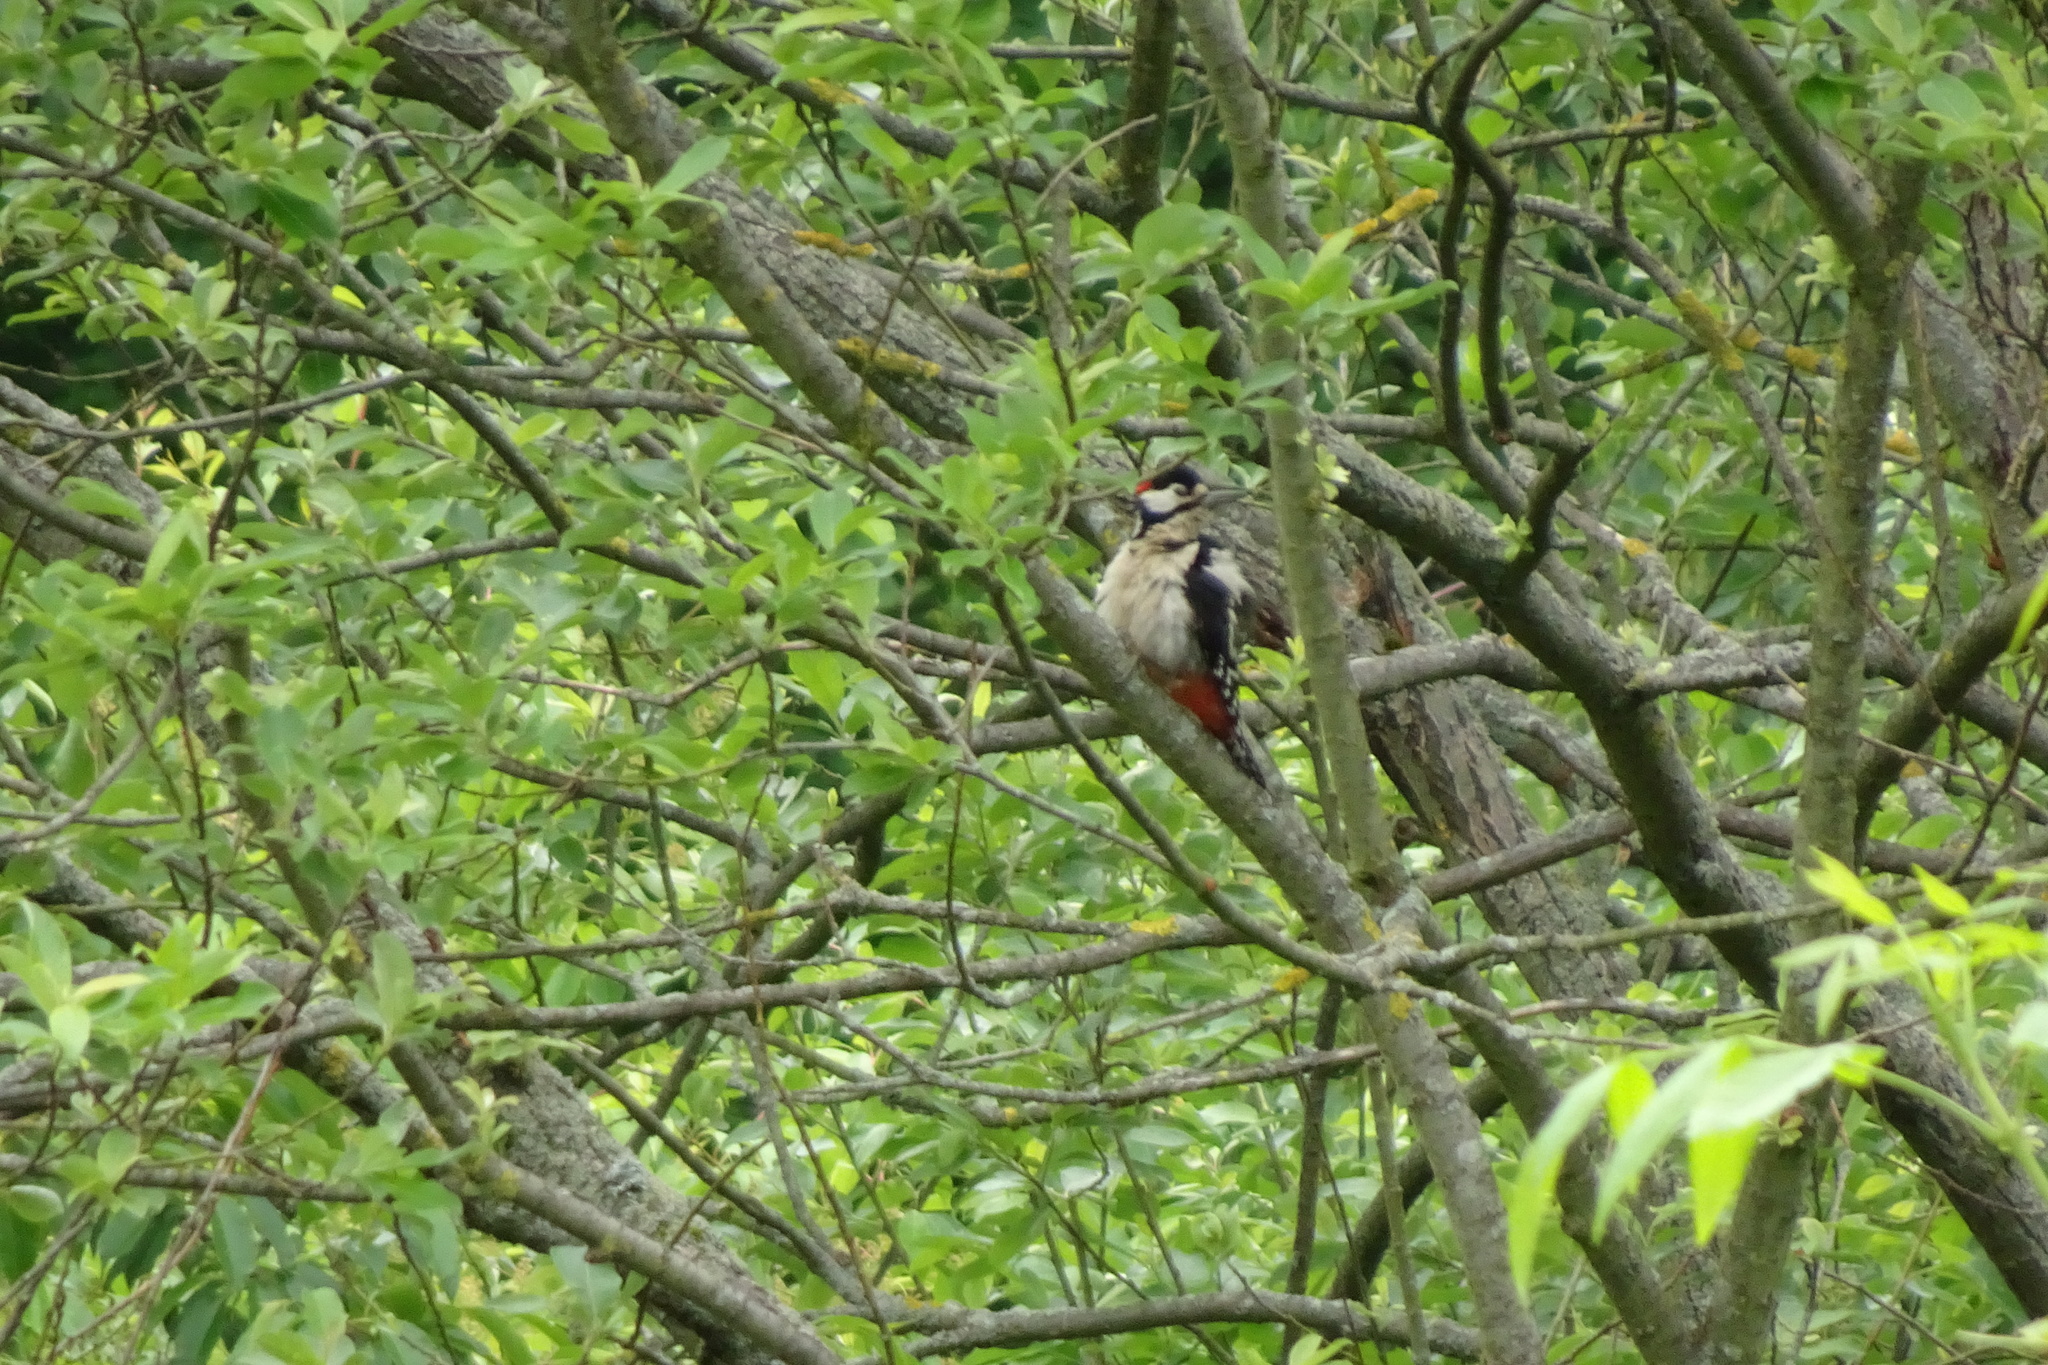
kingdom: Animalia
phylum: Chordata
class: Aves
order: Piciformes
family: Picidae
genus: Dendrocopos
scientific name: Dendrocopos major
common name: Great spotted woodpecker
